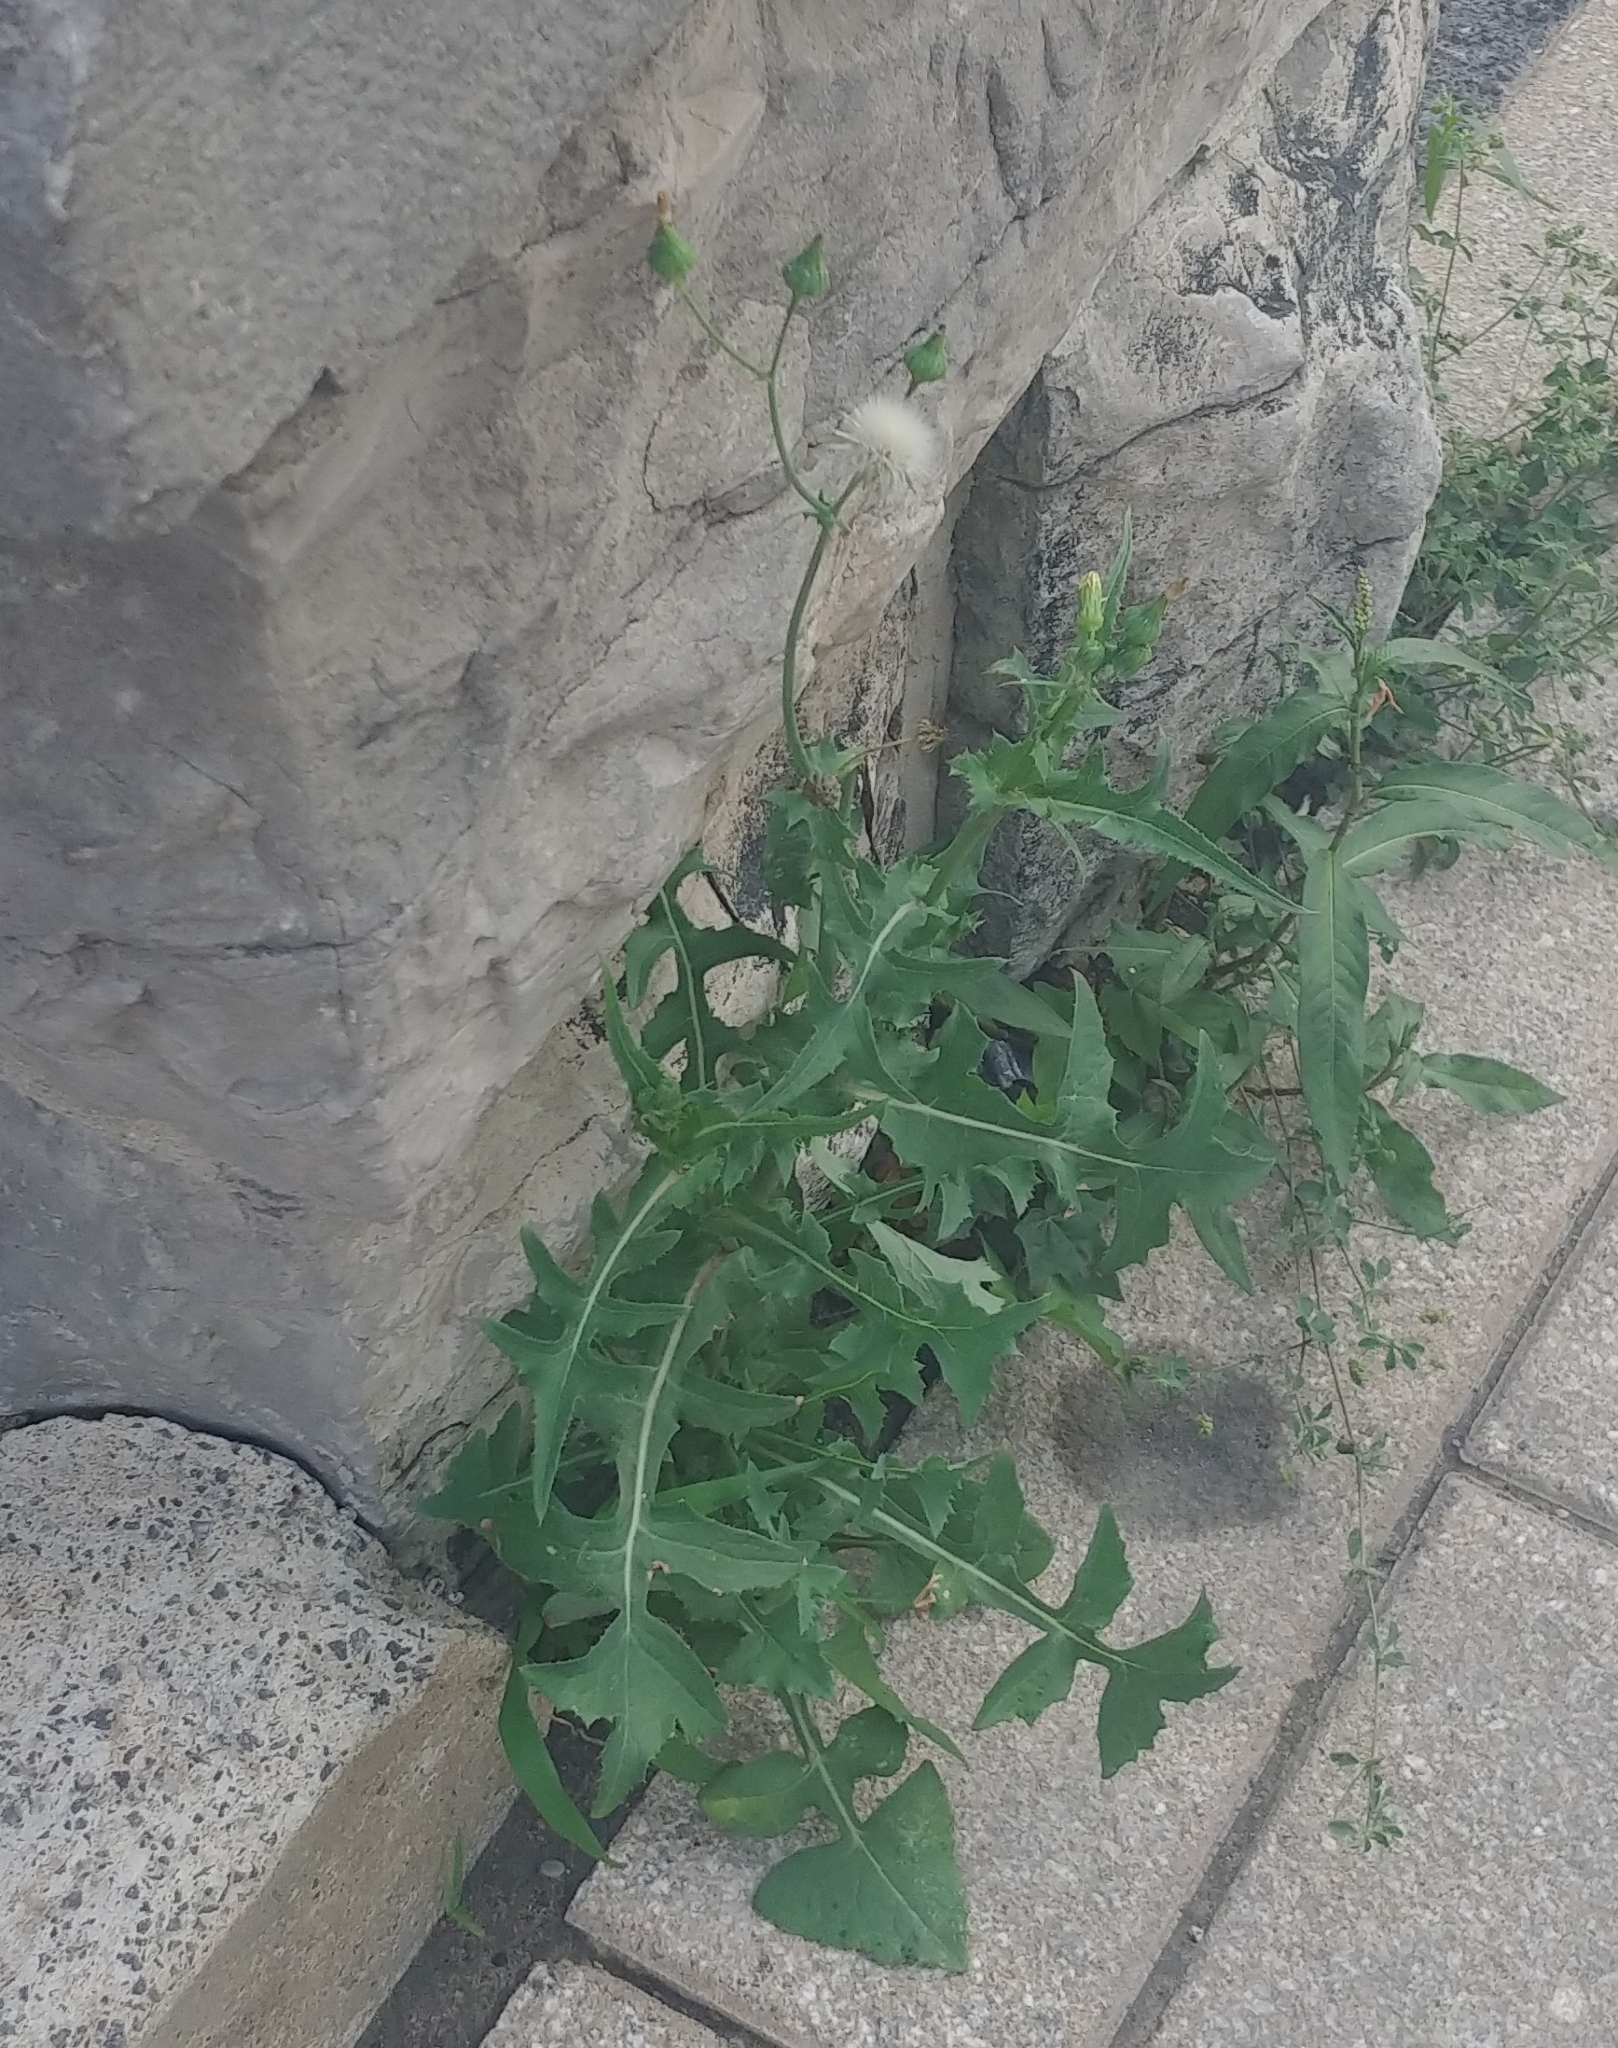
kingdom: Plantae
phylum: Tracheophyta
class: Magnoliopsida
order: Asterales
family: Asteraceae
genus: Sonchus
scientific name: Sonchus oleraceus
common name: Common sowthistle
